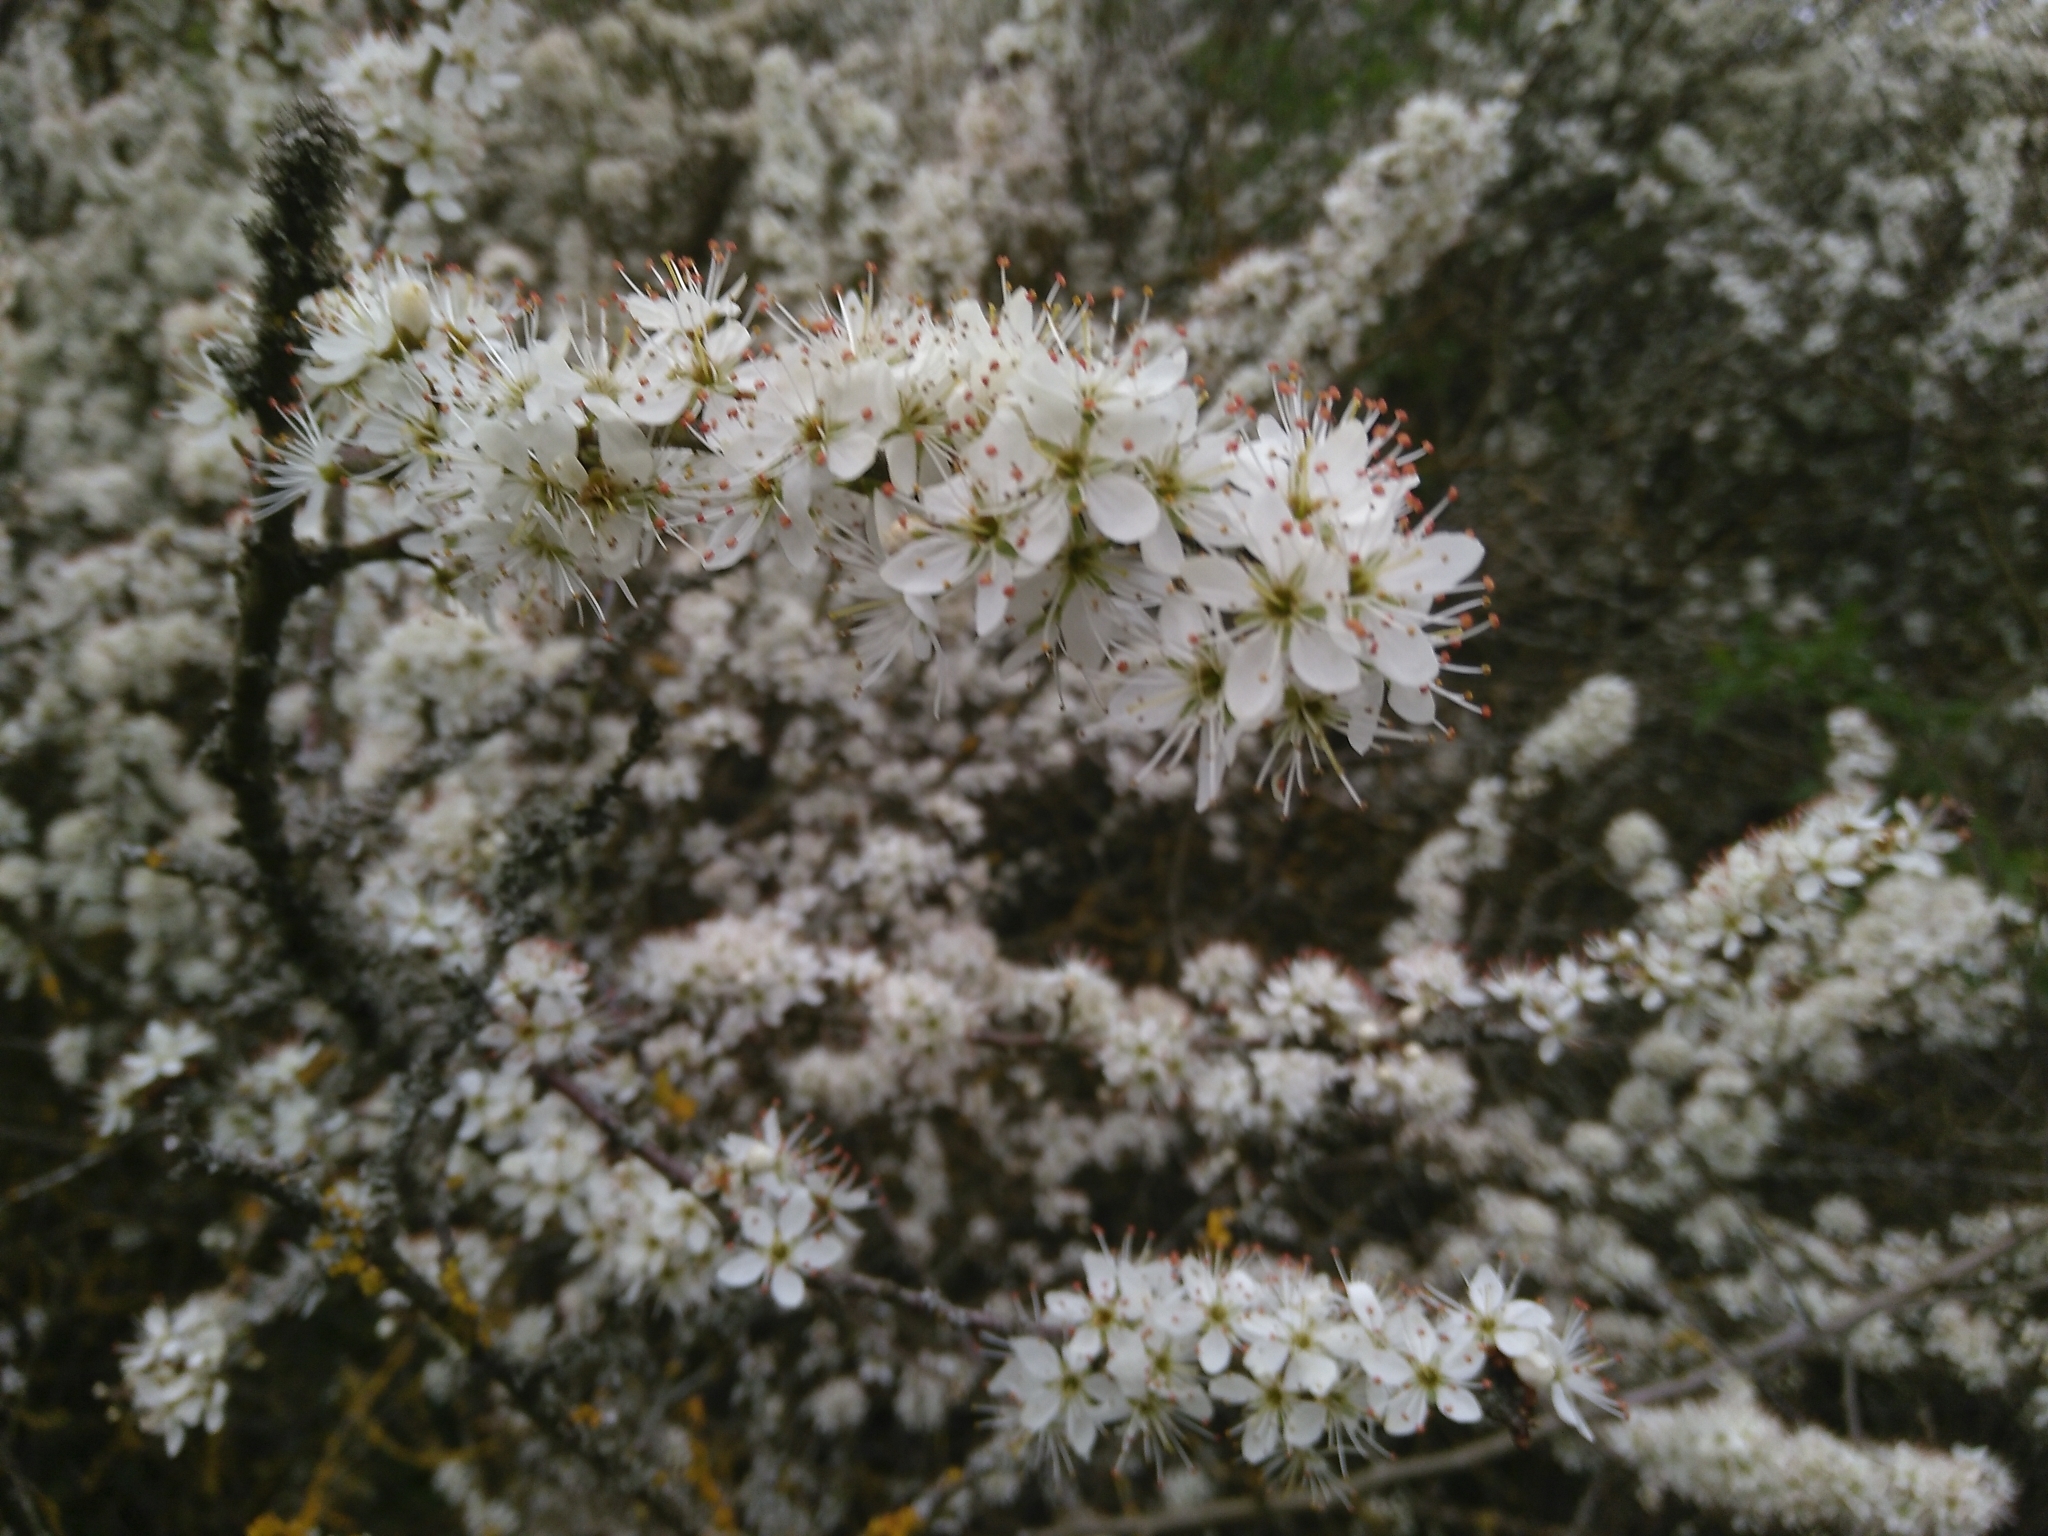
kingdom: Plantae
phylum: Tracheophyta
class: Magnoliopsida
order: Rosales
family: Rosaceae
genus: Prunus
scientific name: Prunus spinosa
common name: Blackthorn
